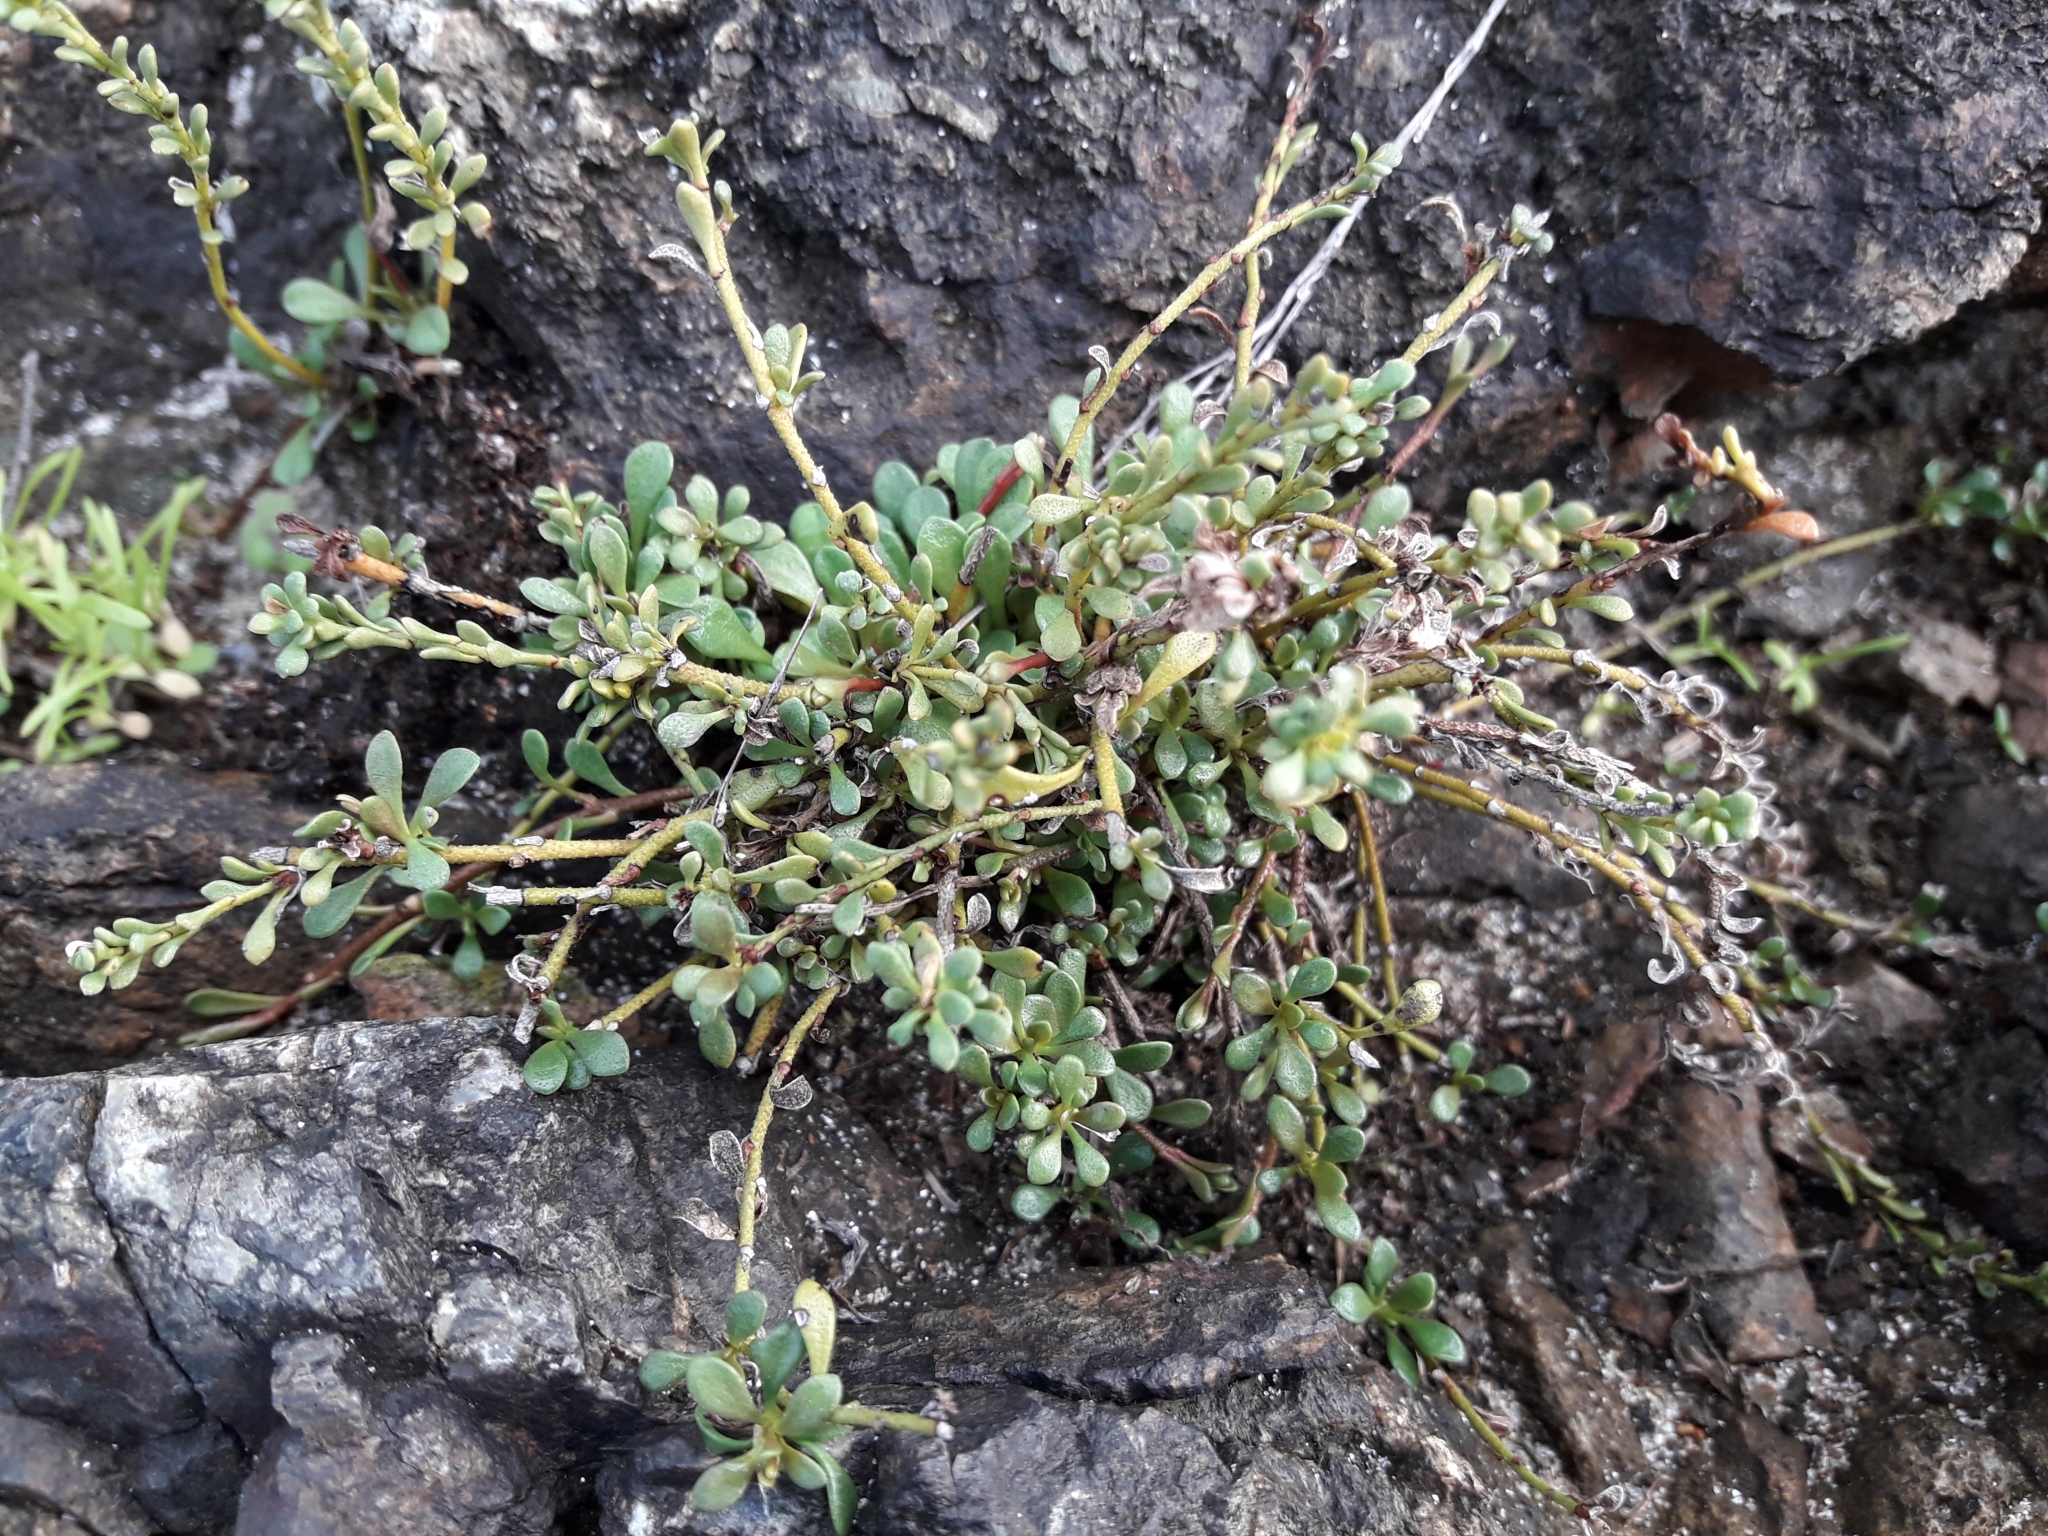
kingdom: Plantae
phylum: Tracheophyta
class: Magnoliopsida
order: Ericales
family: Primulaceae
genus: Samolus
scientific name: Samolus repens
